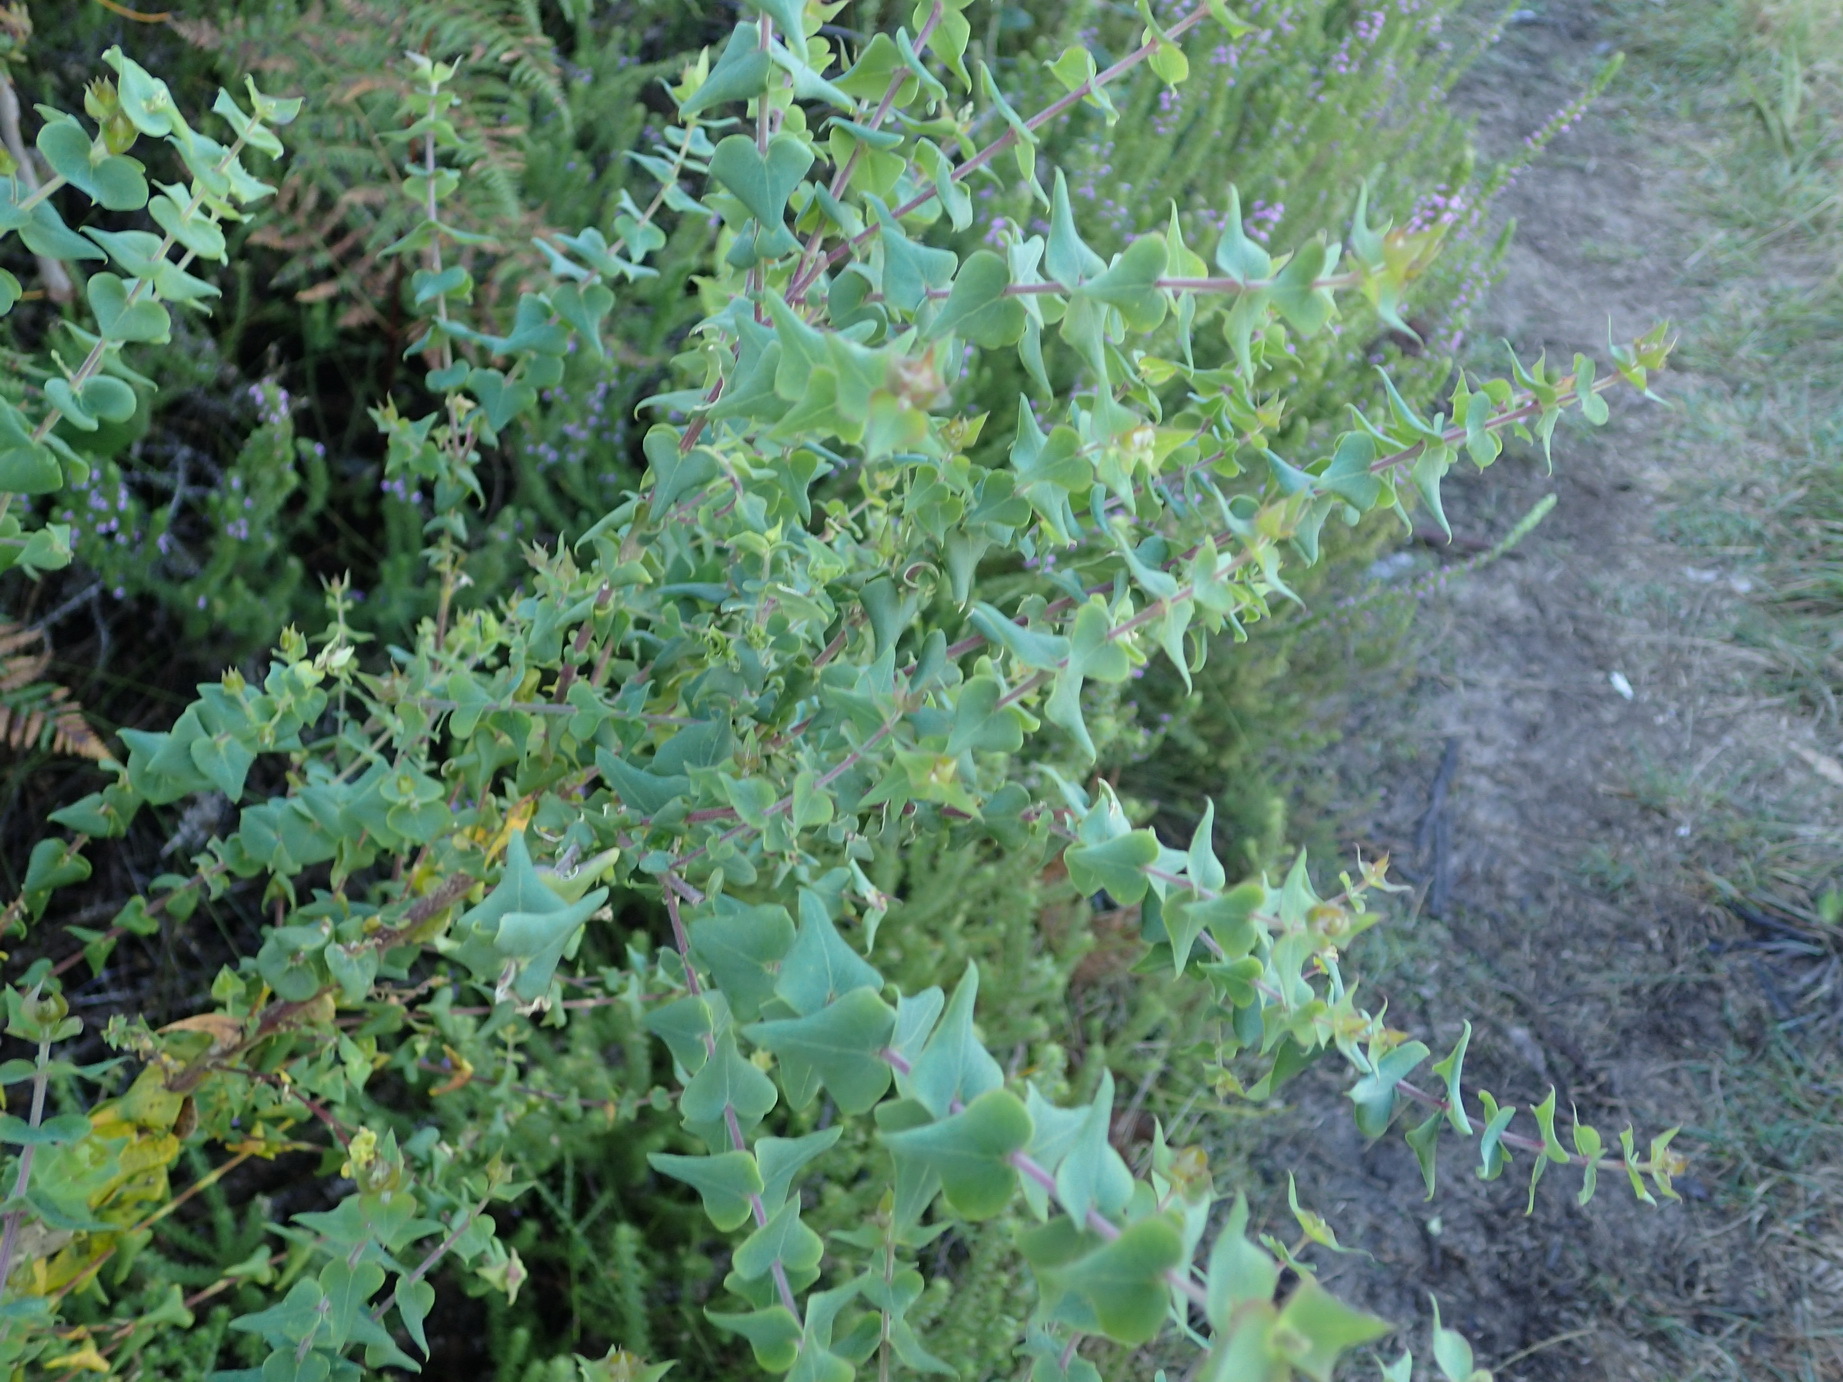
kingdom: Plantae
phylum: Tracheophyta
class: Magnoliopsida
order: Fabales
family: Polygalaceae
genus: Polygala
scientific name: Polygala fruticosa
